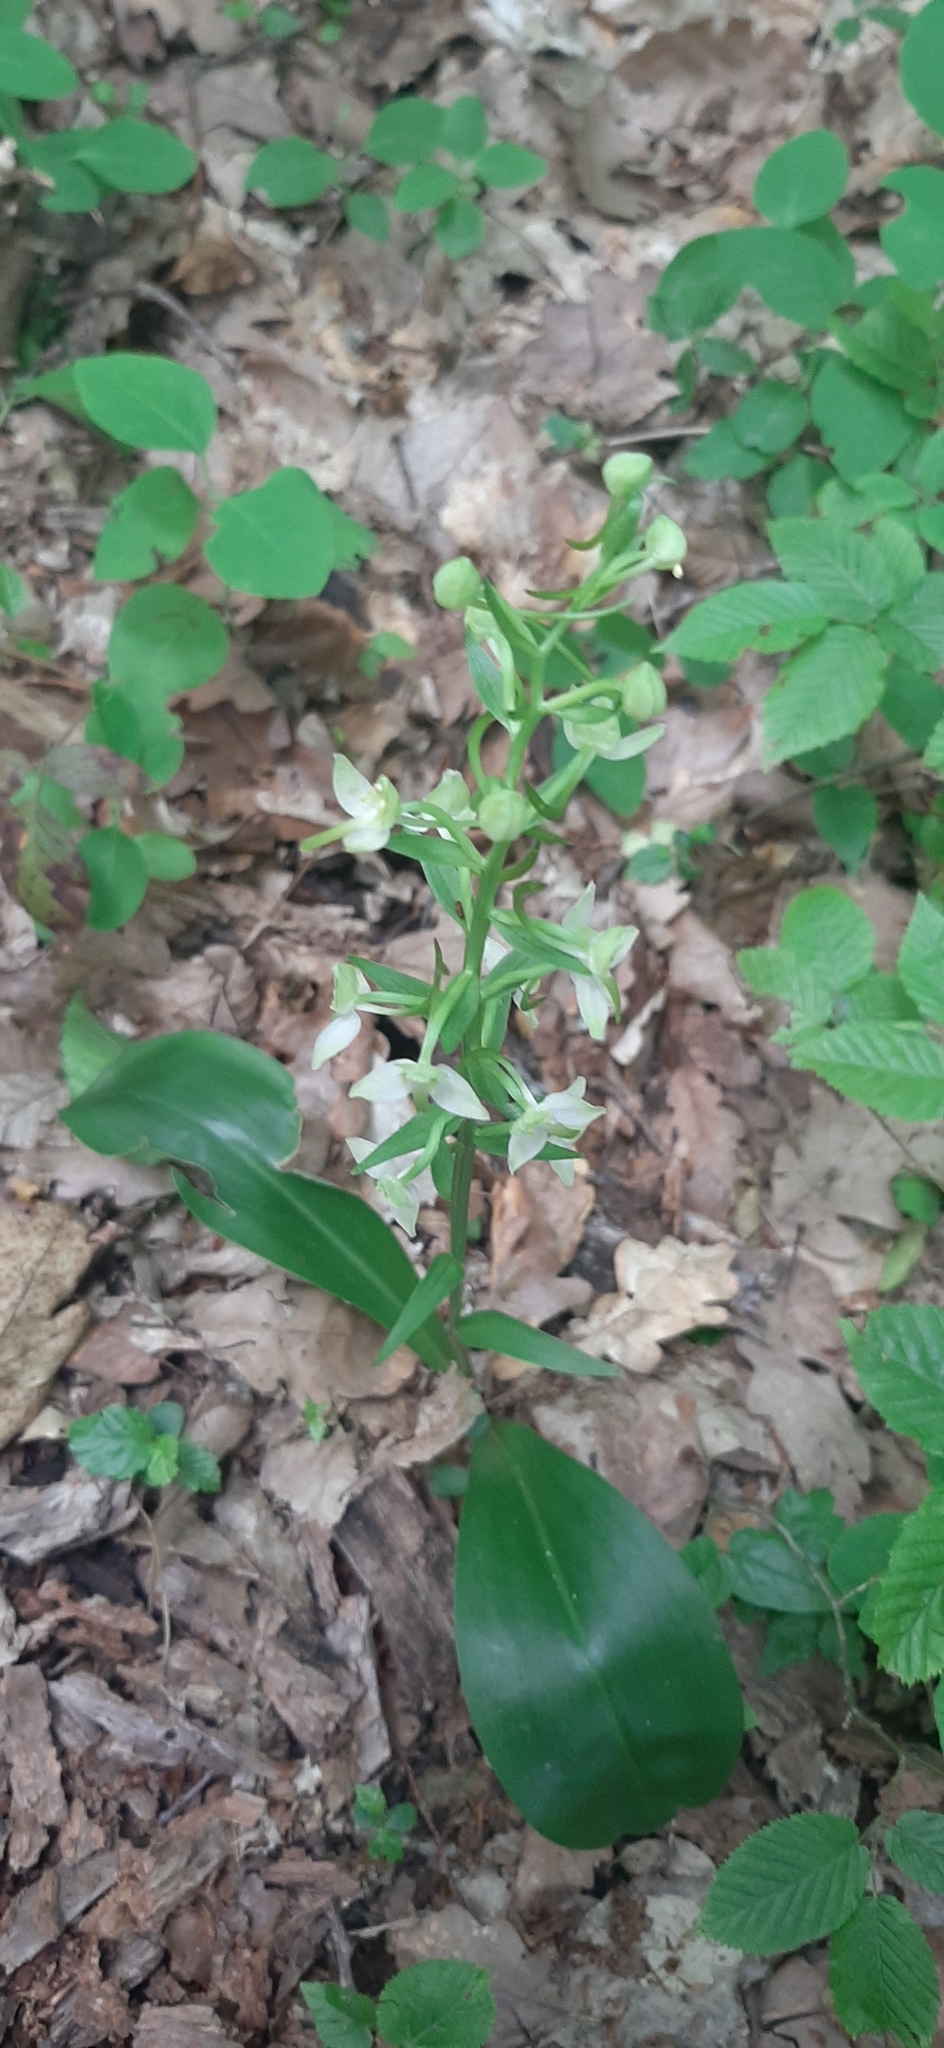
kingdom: Plantae
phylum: Tracheophyta
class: Liliopsida
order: Asparagales
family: Orchidaceae
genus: Platanthera
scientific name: Platanthera chlorantha
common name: Greater butterfly-orchid
